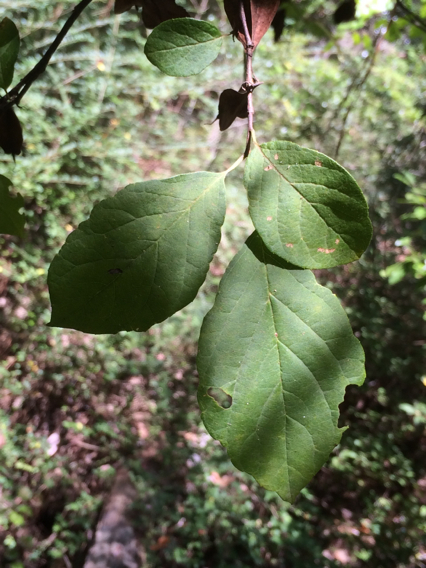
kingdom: Plantae
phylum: Tracheophyta
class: Magnoliopsida
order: Ericales
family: Styracaceae
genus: Halesia
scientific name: Halesia diptera
